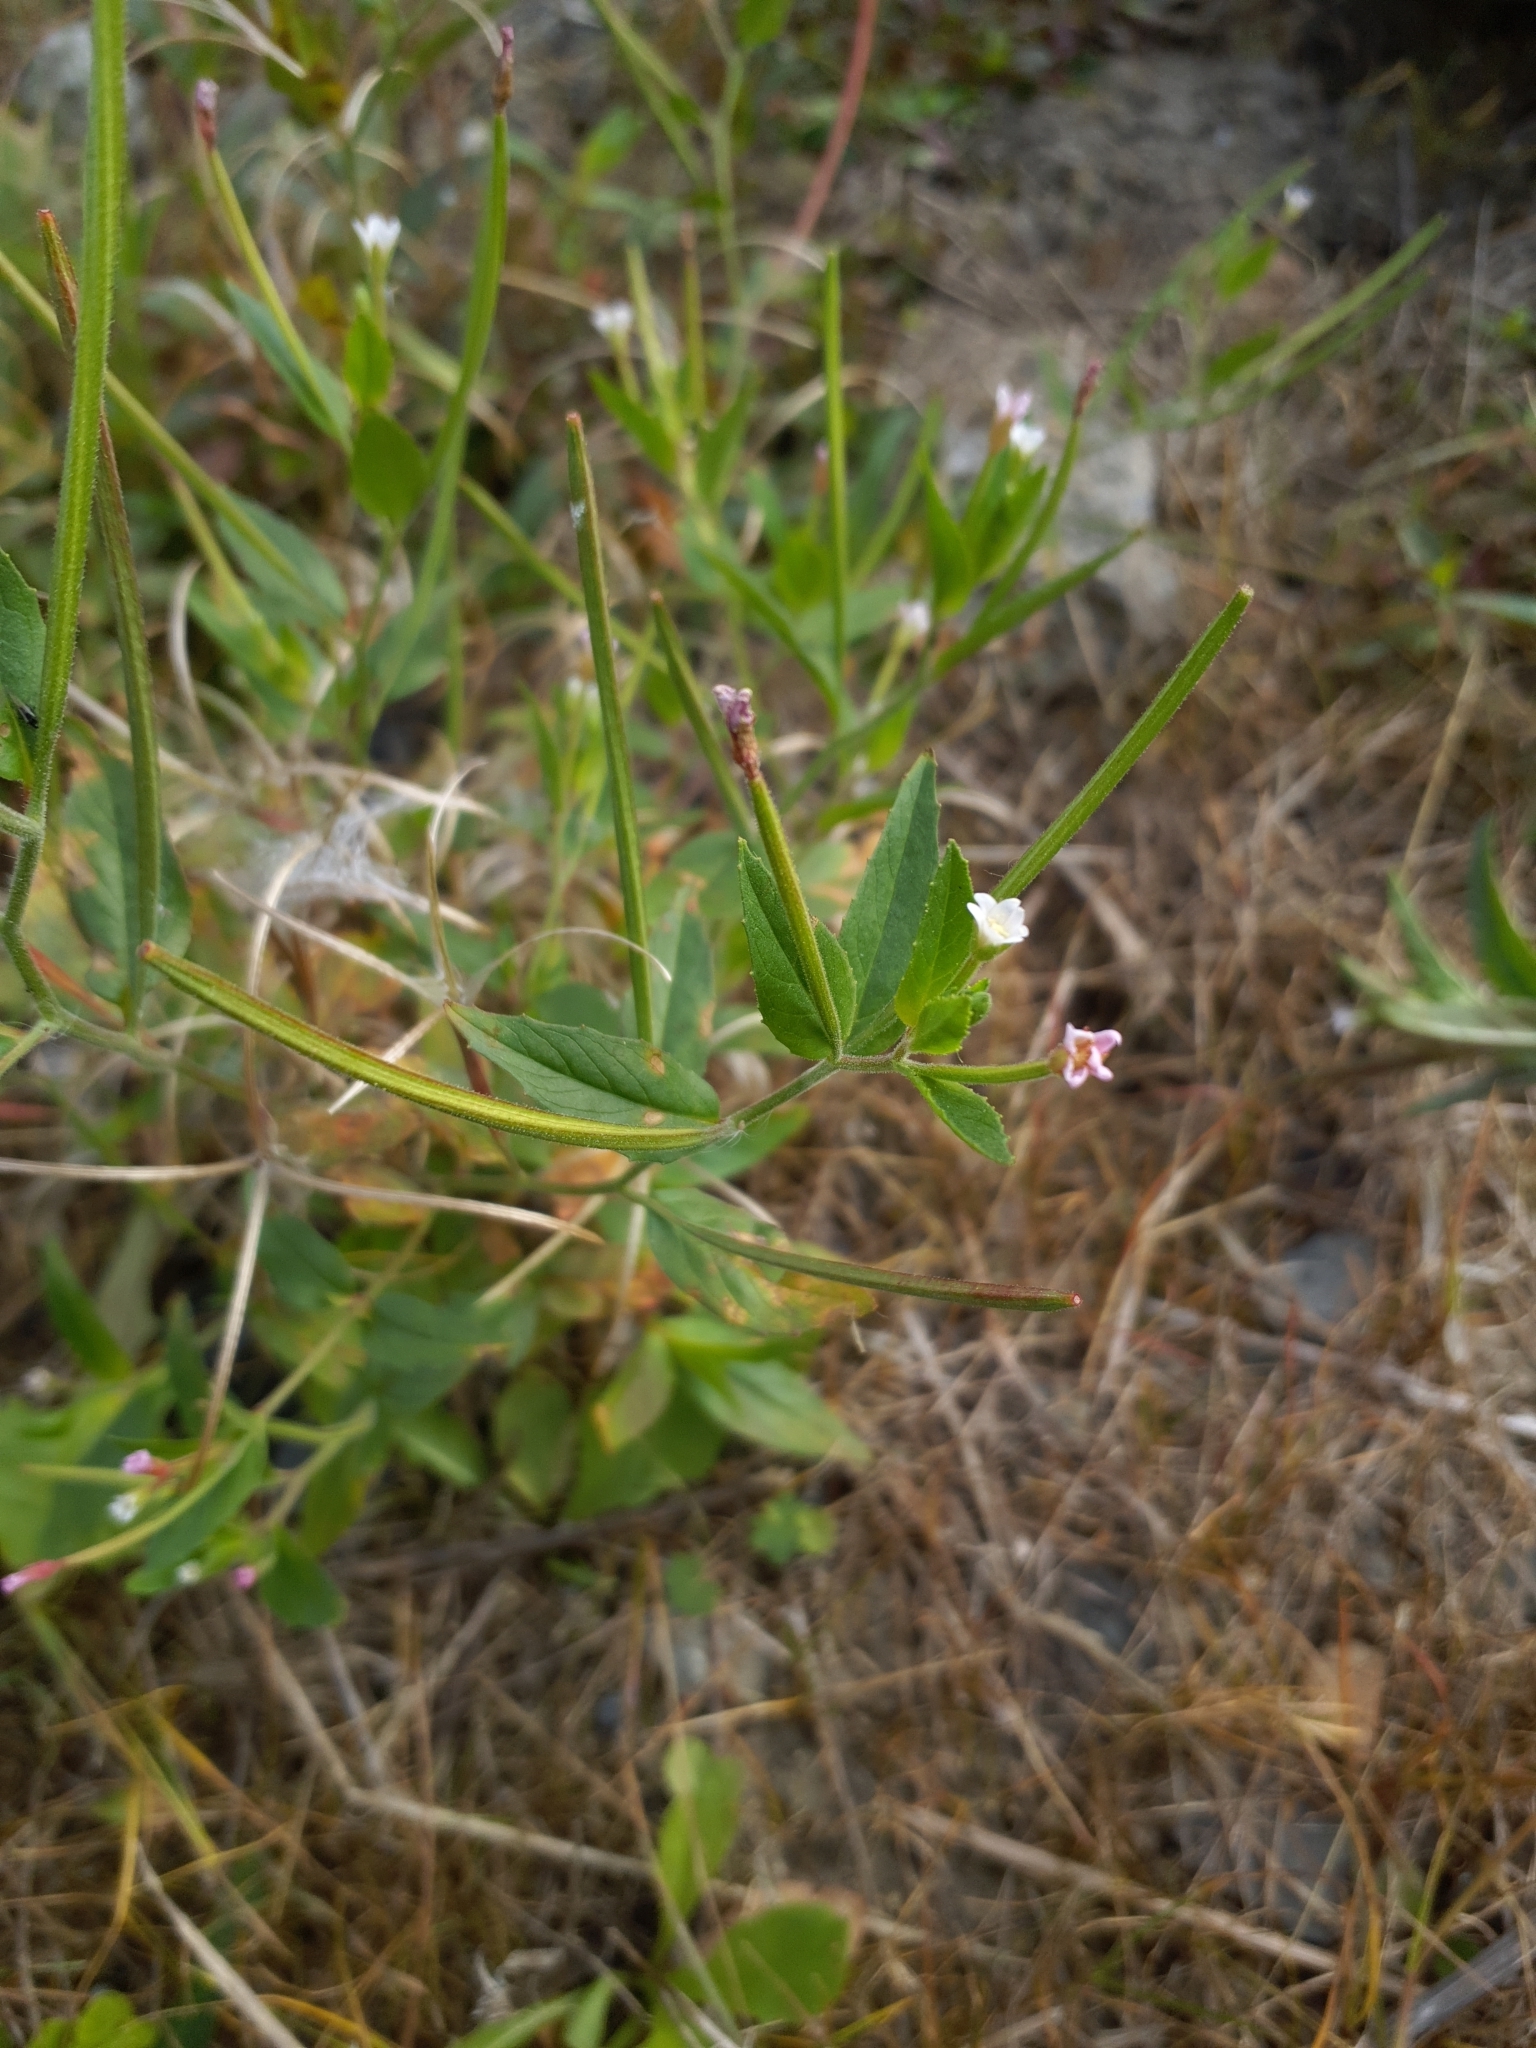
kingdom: Plantae
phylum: Tracheophyta
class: Magnoliopsida
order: Myrtales
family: Onagraceae
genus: Epilobium
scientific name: Epilobium ciliatum
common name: American willowherb
